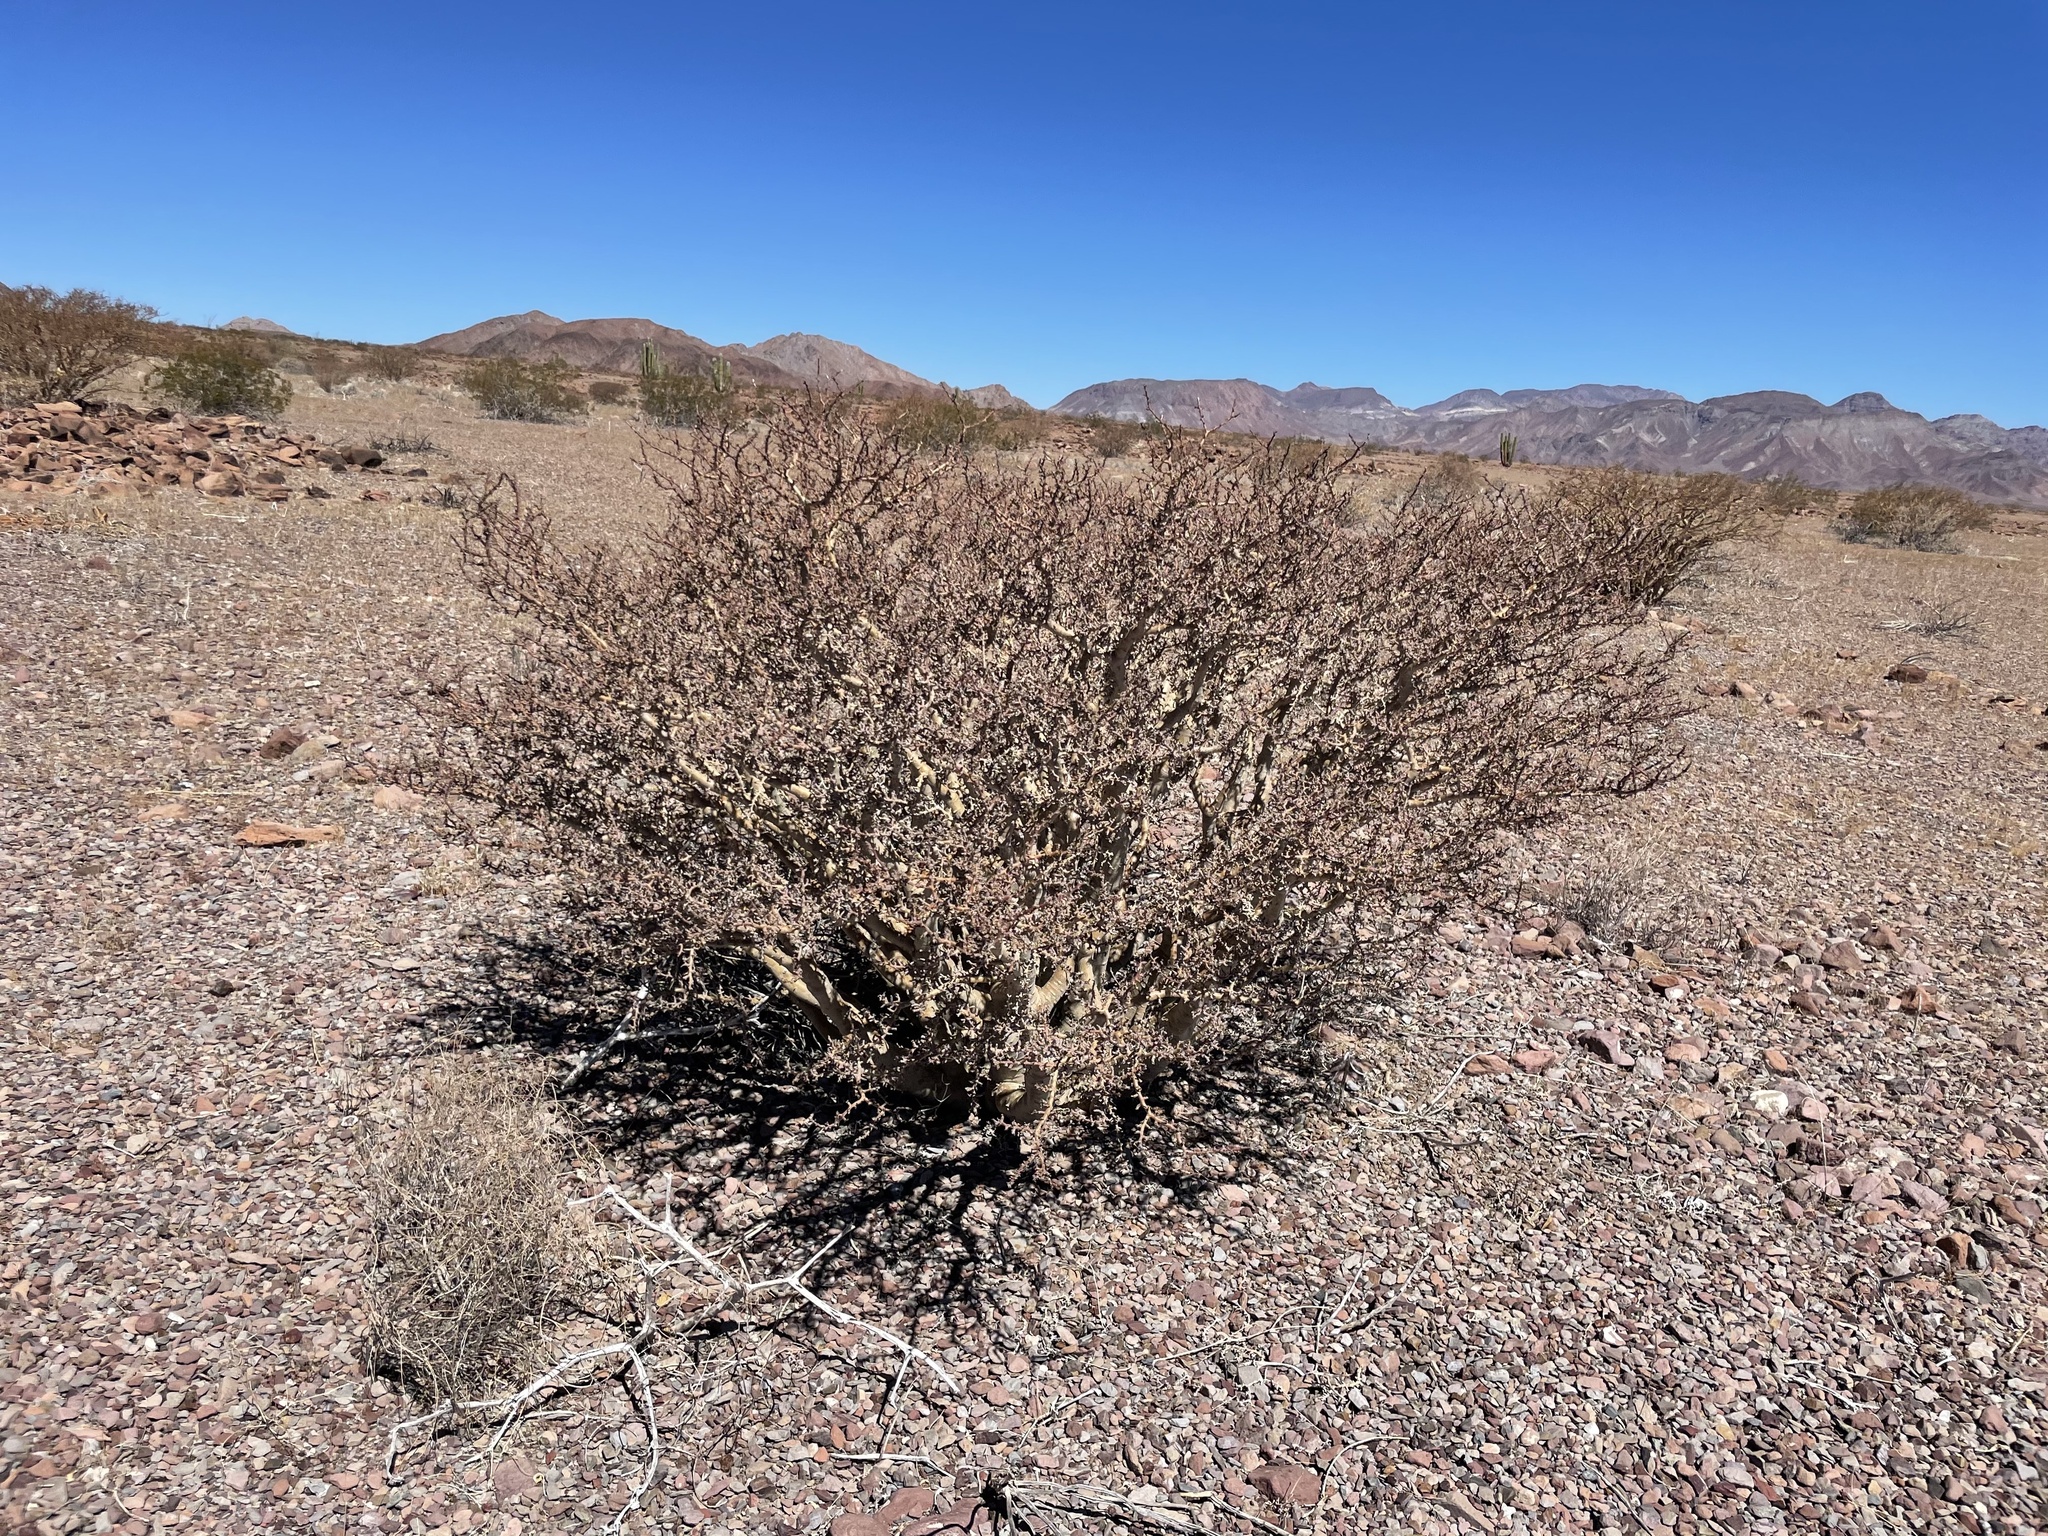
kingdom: Plantae
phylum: Tracheophyta
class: Magnoliopsida
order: Malpighiales
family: Euphorbiaceae
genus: Jatropha
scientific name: Jatropha cuneata
